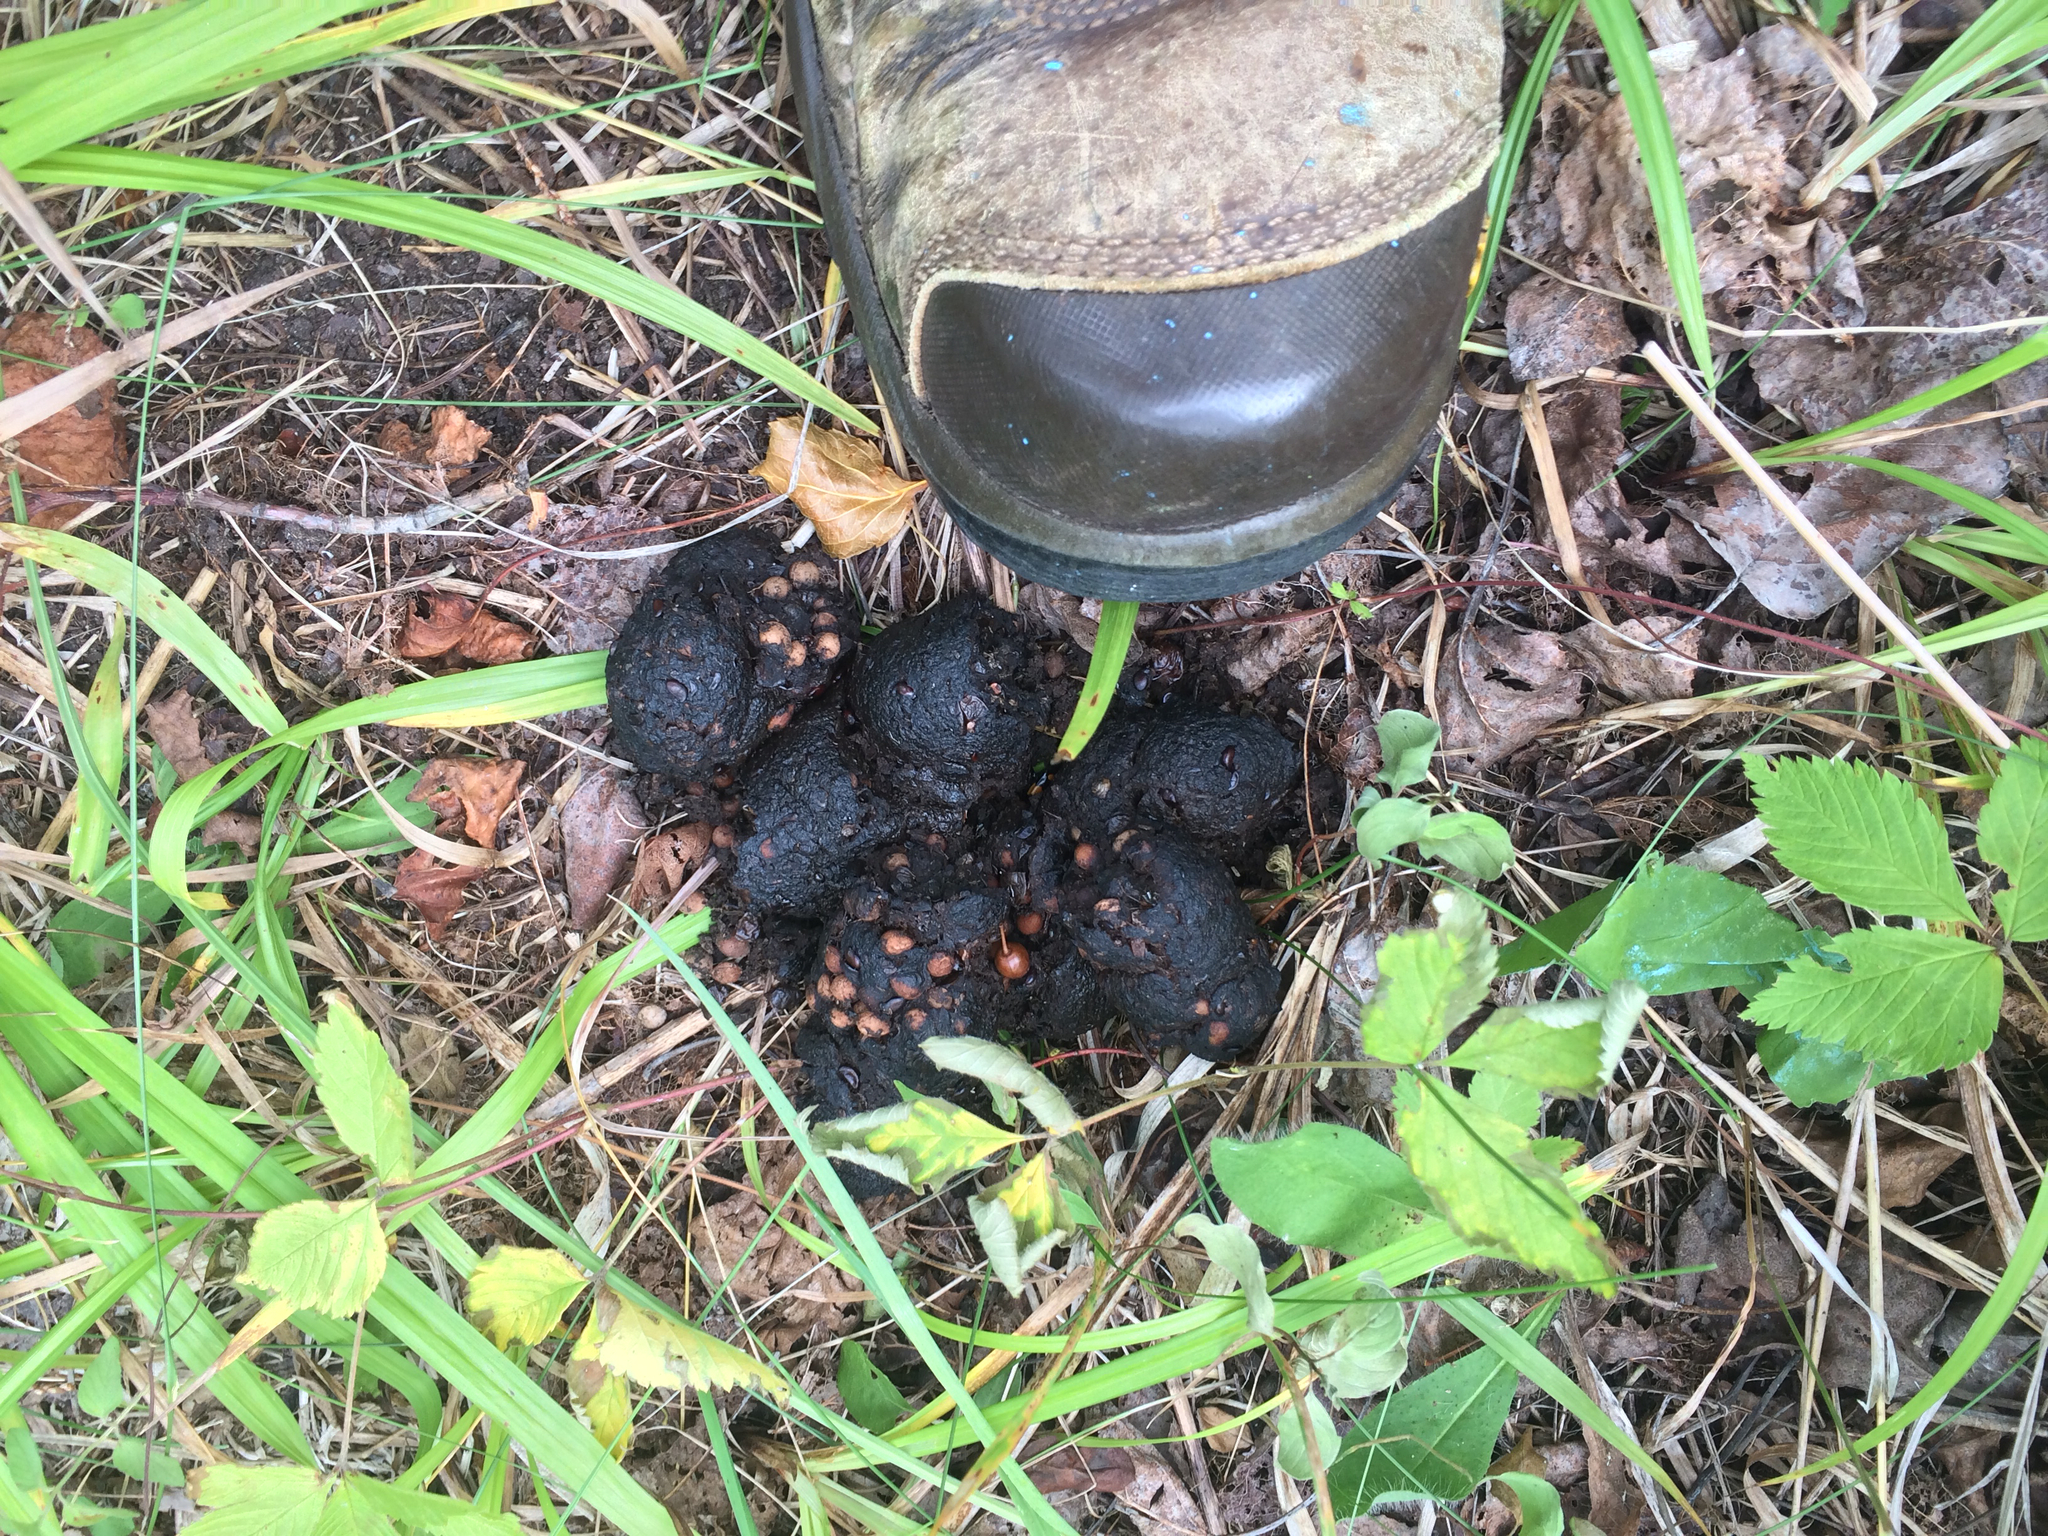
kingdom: Animalia
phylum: Chordata
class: Mammalia
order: Carnivora
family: Ursidae
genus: Ursus
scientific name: Ursus americanus
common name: American black bear
